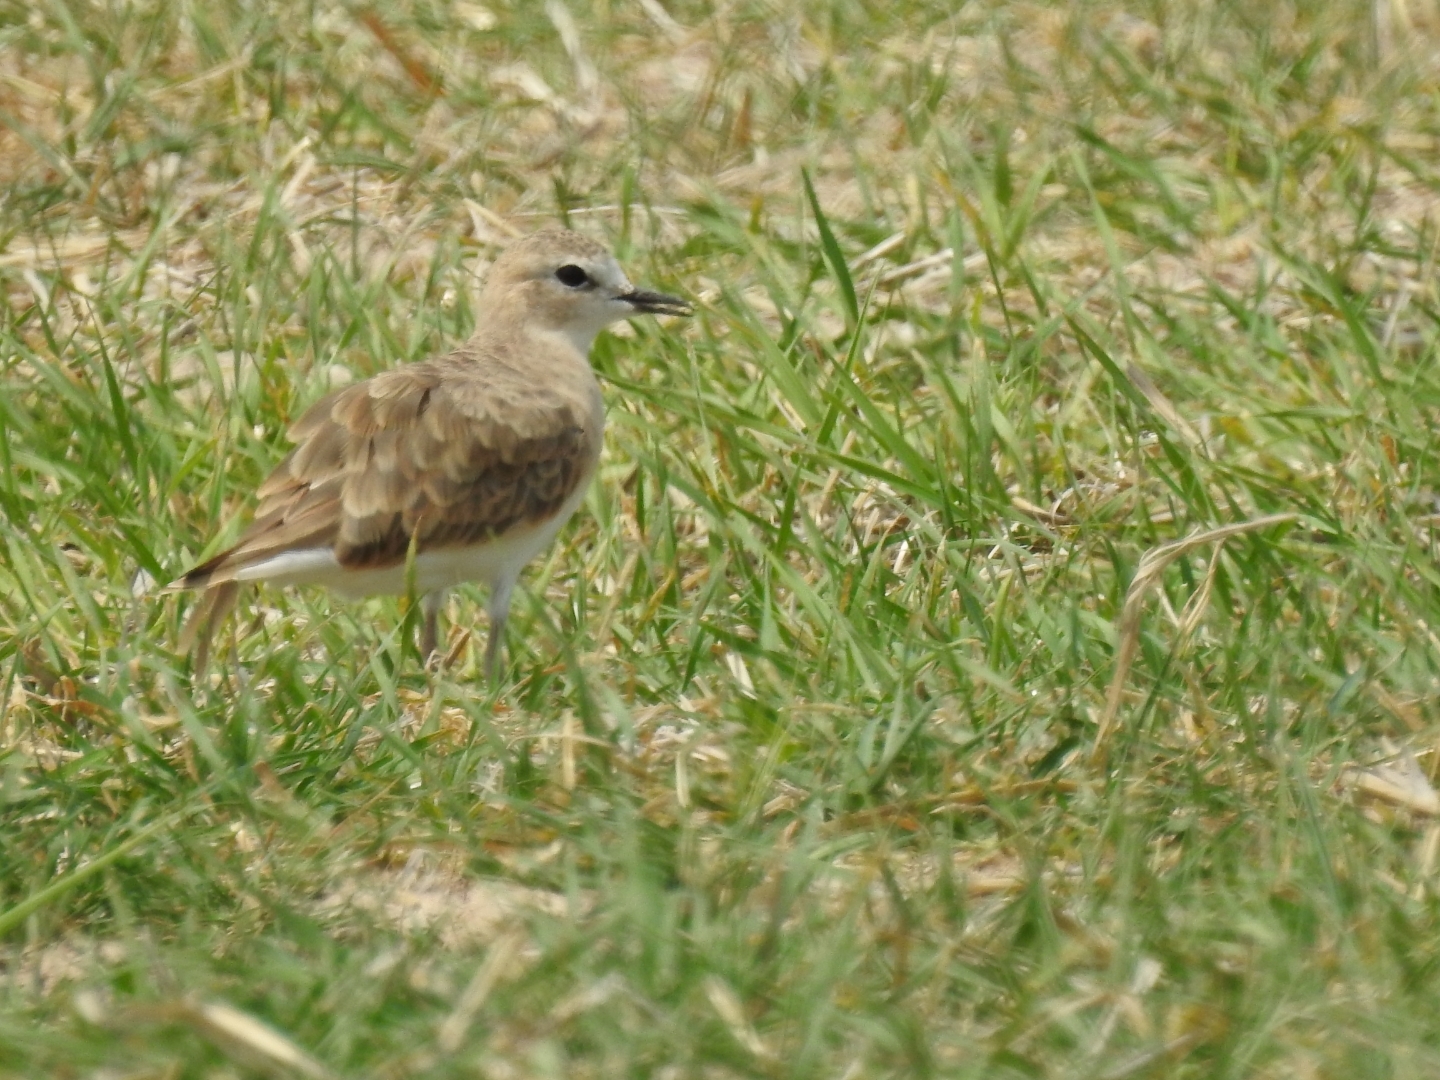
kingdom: Animalia
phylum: Chordata
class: Aves
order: Charadriiformes
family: Charadriidae
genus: Anarhynchus
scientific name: Anarhynchus
